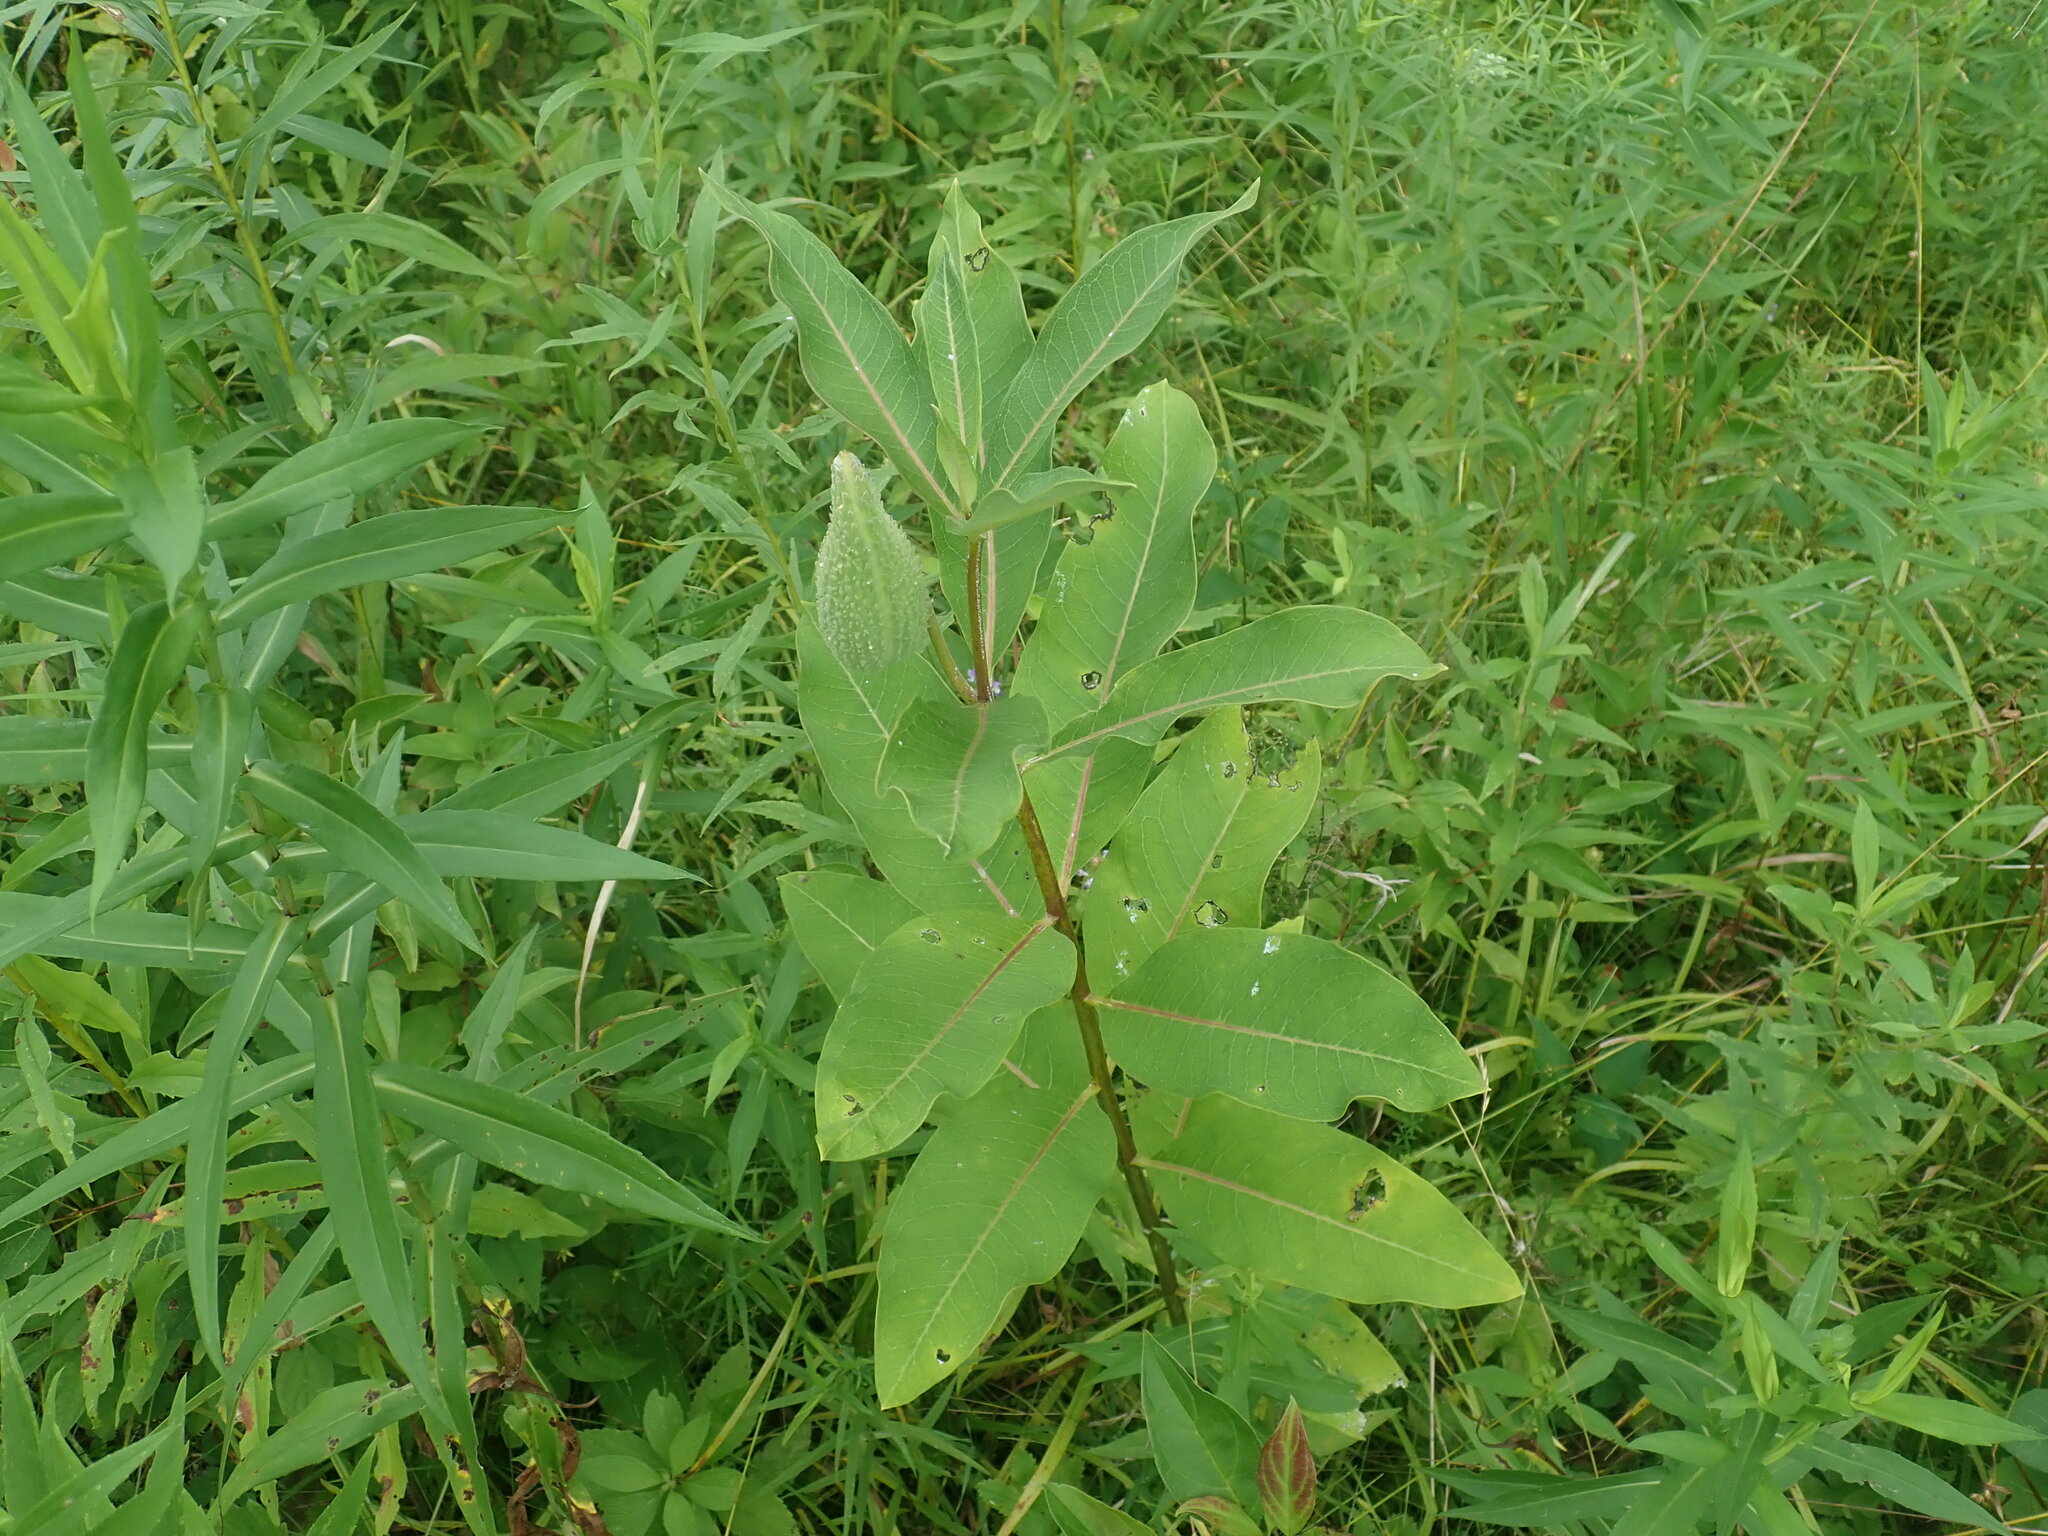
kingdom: Plantae
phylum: Tracheophyta
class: Magnoliopsida
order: Gentianales
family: Apocynaceae
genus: Asclepias
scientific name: Asclepias syriaca
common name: Common milkweed
